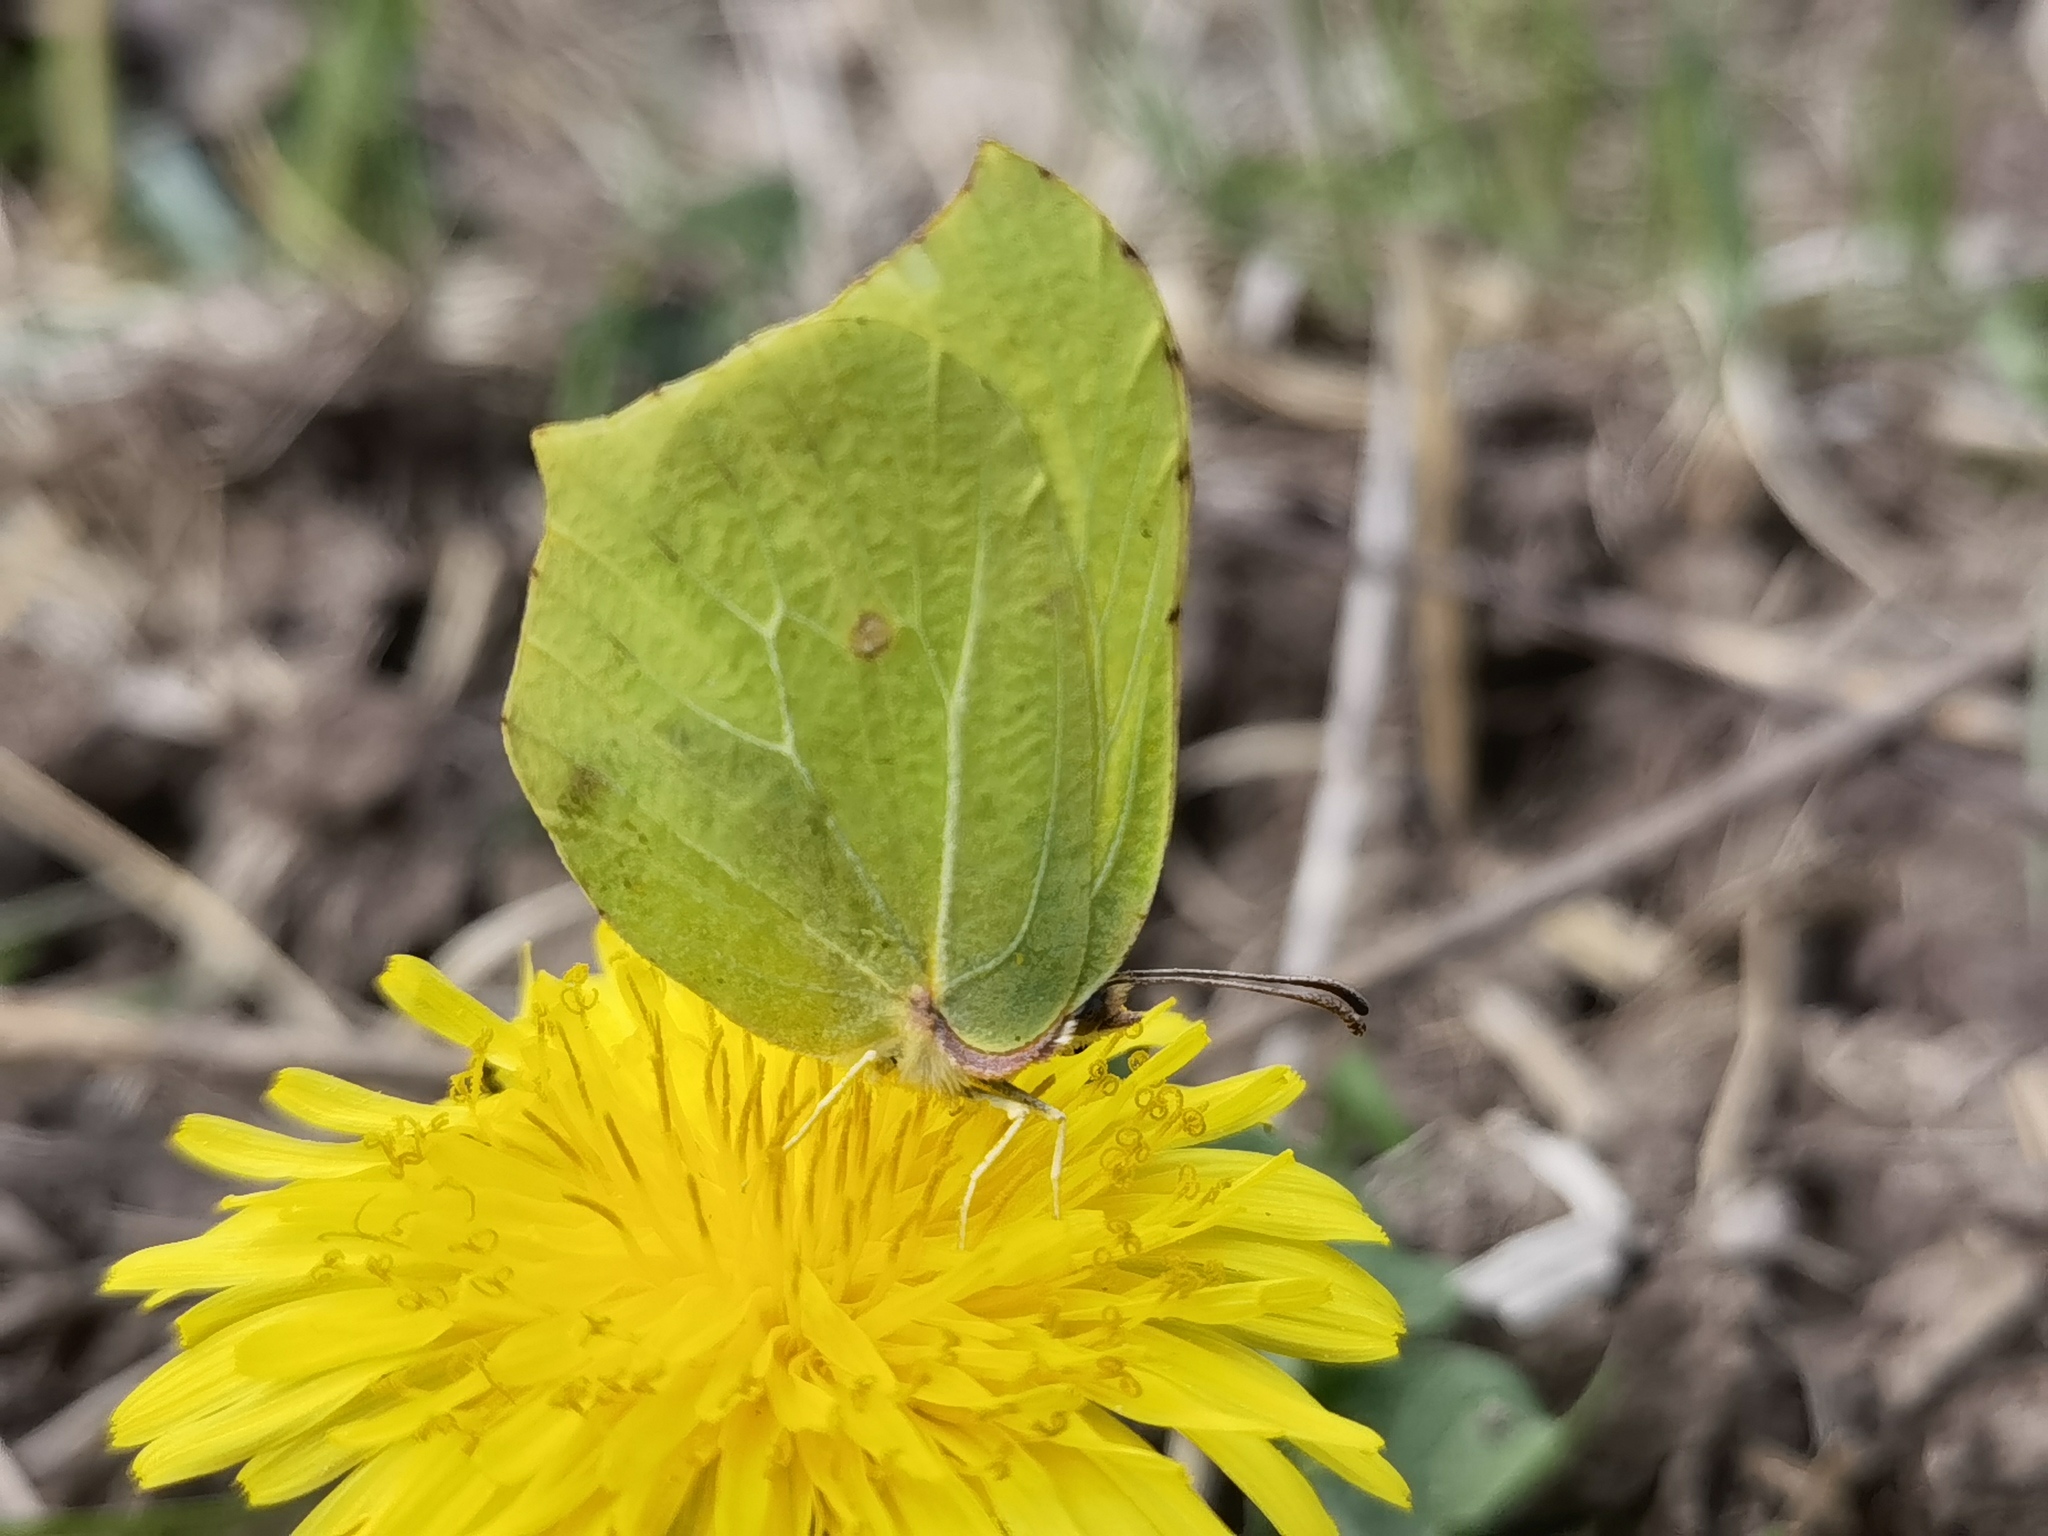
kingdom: Animalia
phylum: Arthropoda
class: Insecta
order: Lepidoptera
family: Pieridae
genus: Gonepteryx
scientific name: Gonepteryx rhamni
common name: Brimstone
